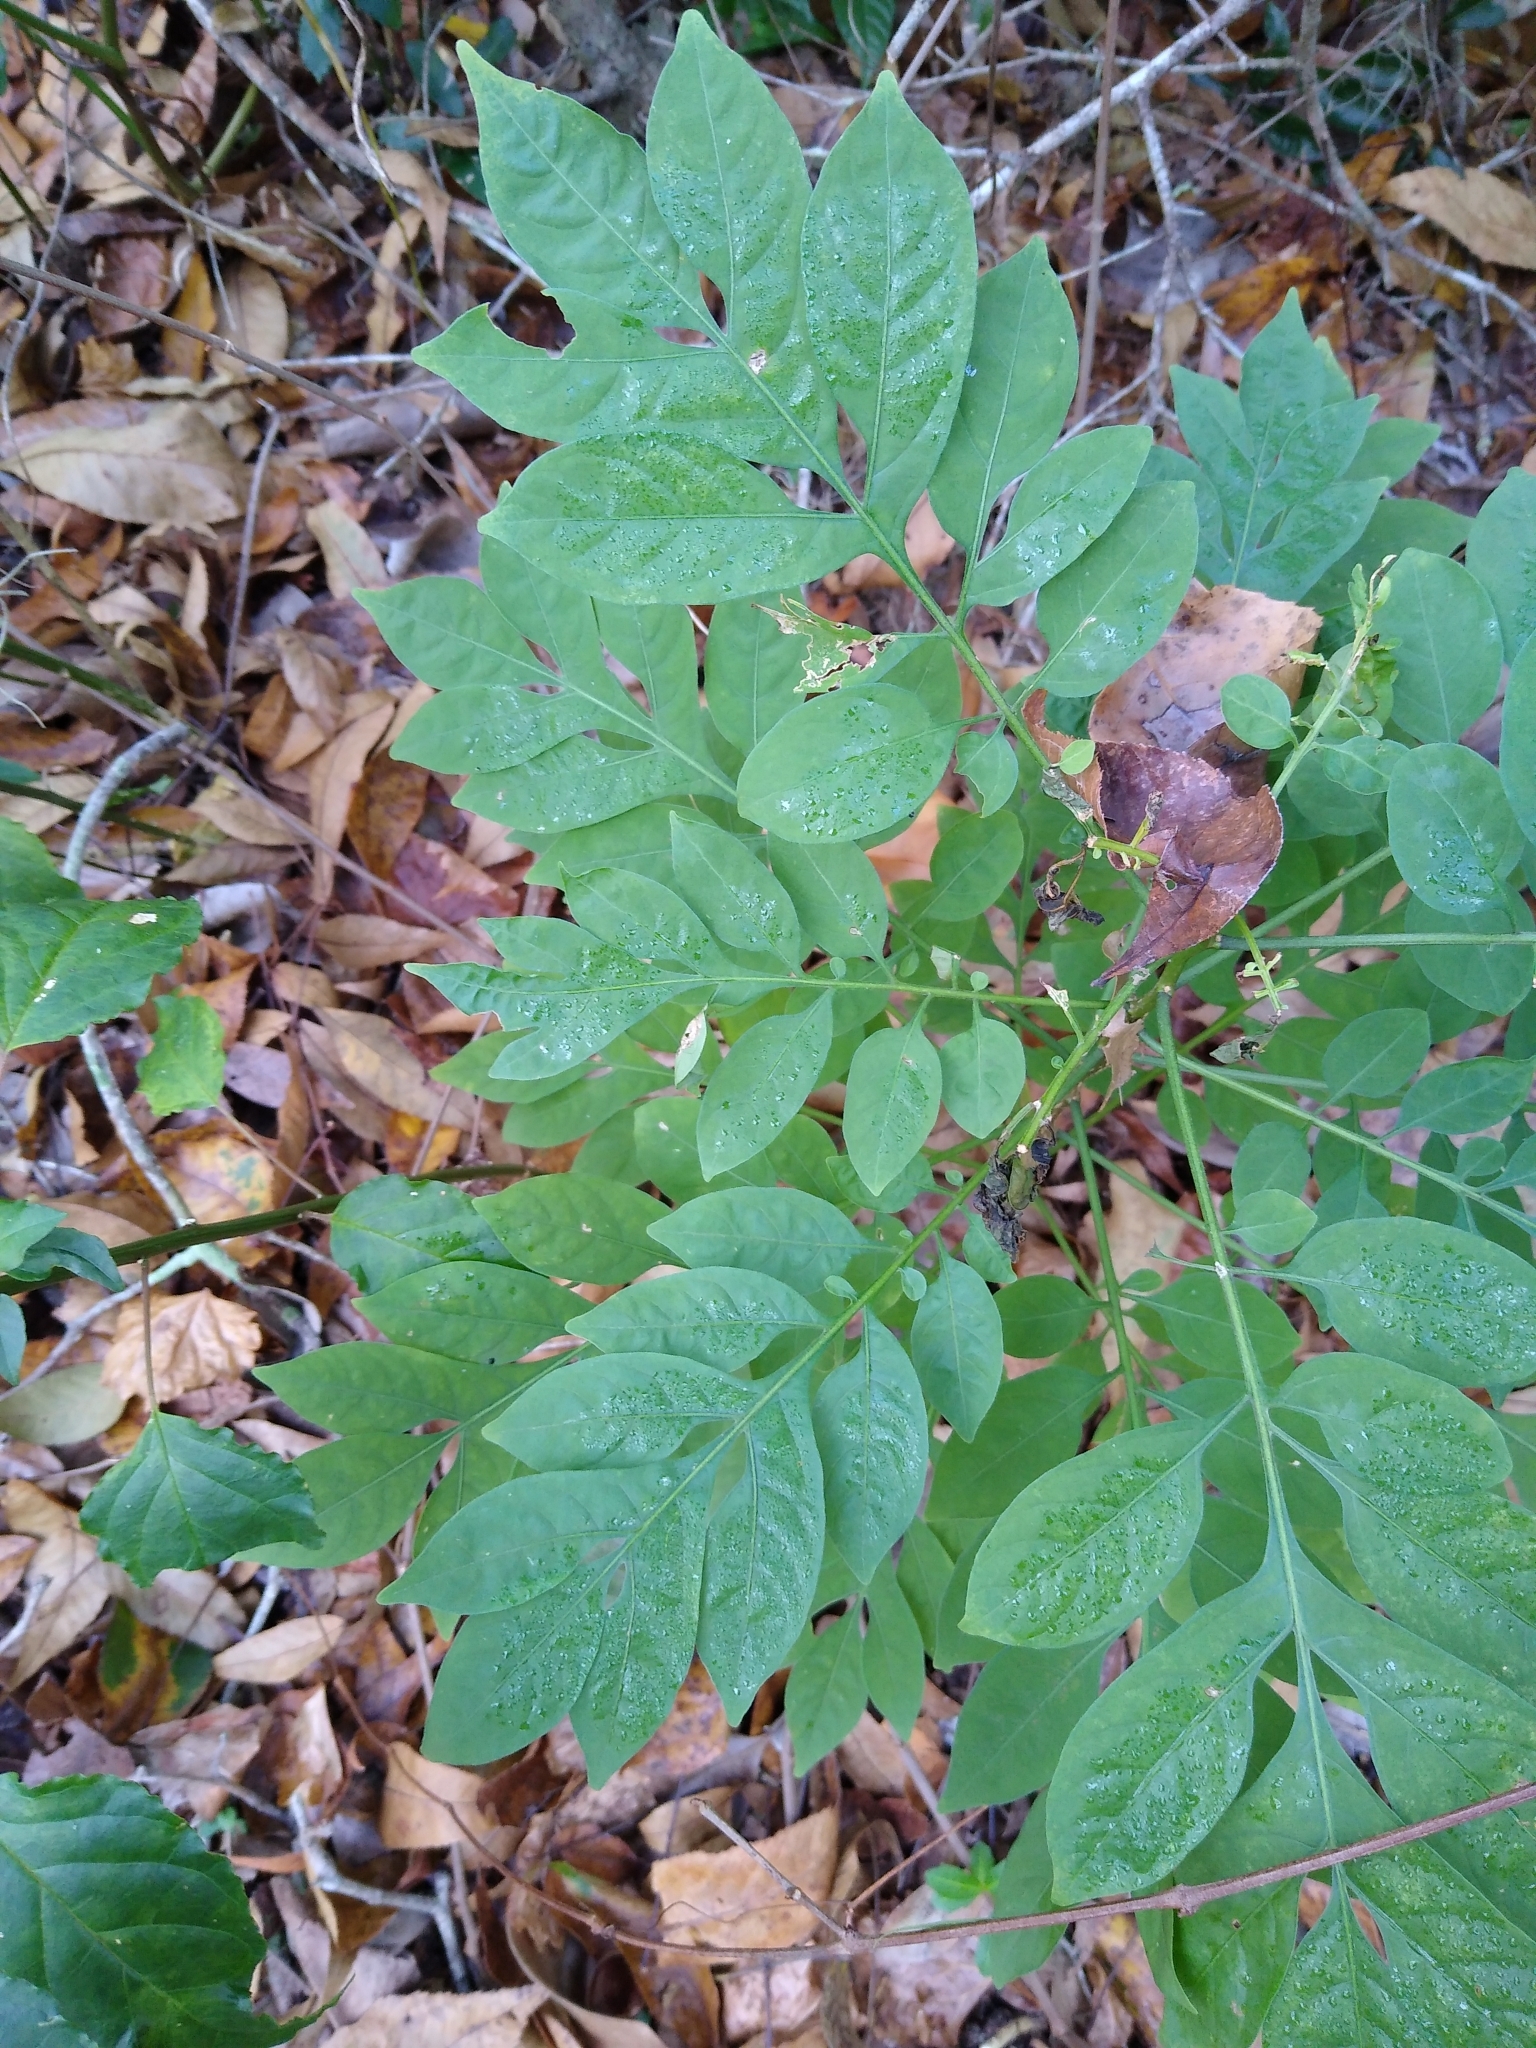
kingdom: Plantae
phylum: Tracheophyta
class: Magnoliopsida
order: Solanales
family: Solanaceae
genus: Solanum
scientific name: Solanum seaforthianum
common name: Brazilian nightshade
